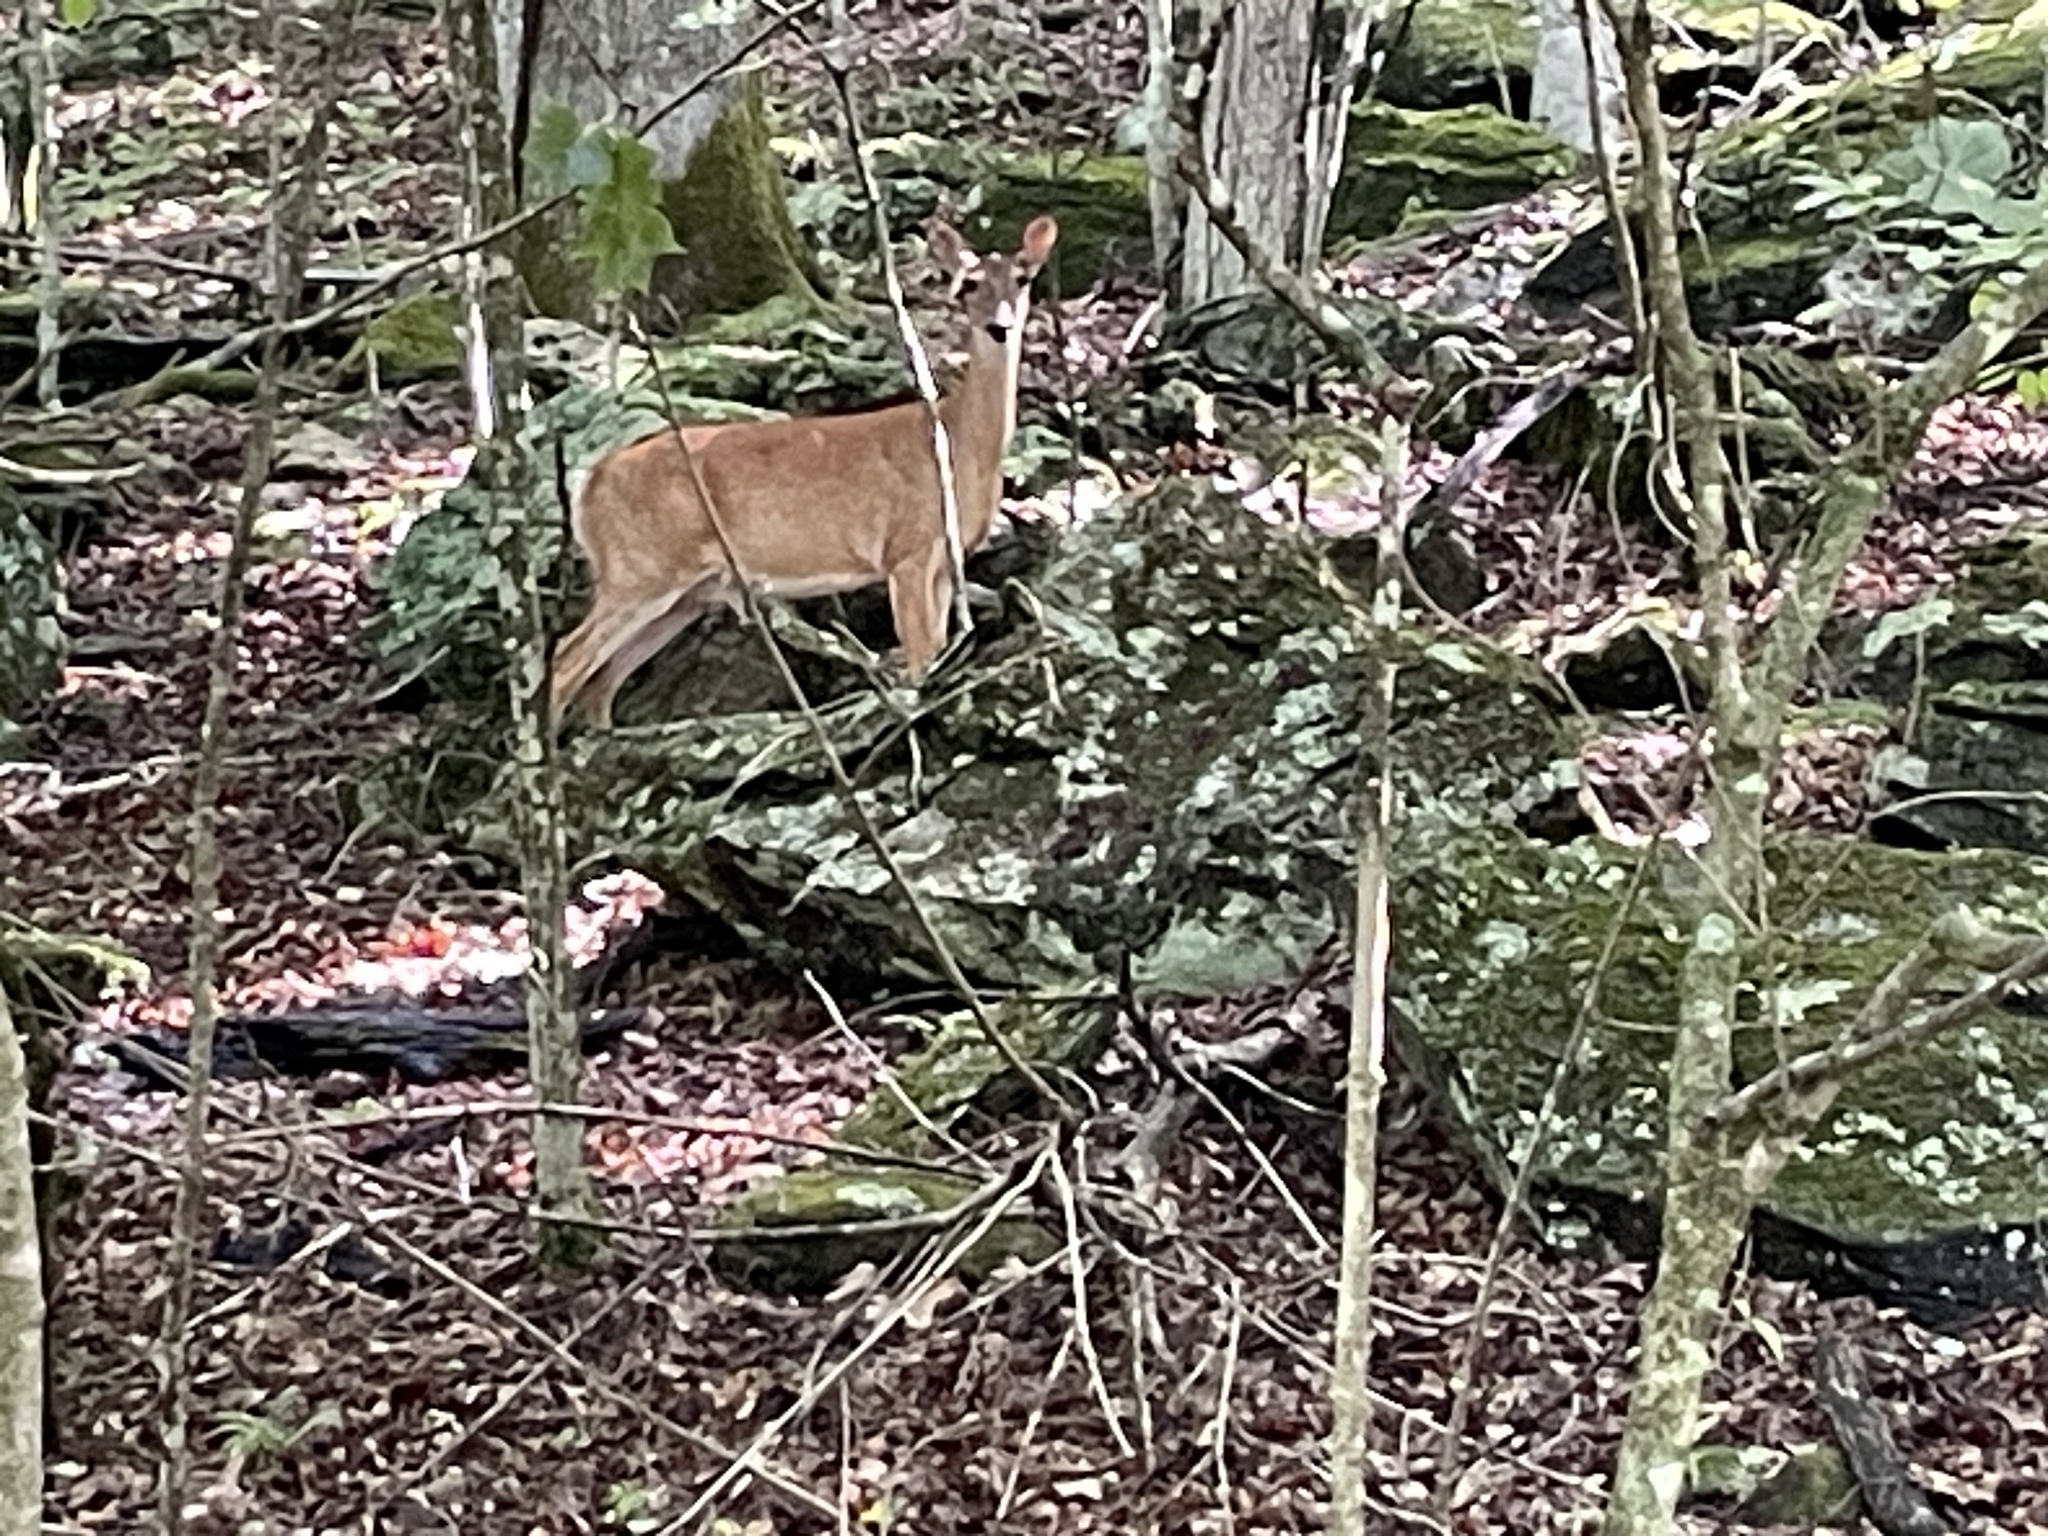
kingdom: Animalia
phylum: Chordata
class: Mammalia
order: Artiodactyla
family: Cervidae
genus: Odocoileus
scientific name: Odocoileus virginianus
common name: White-tailed deer
